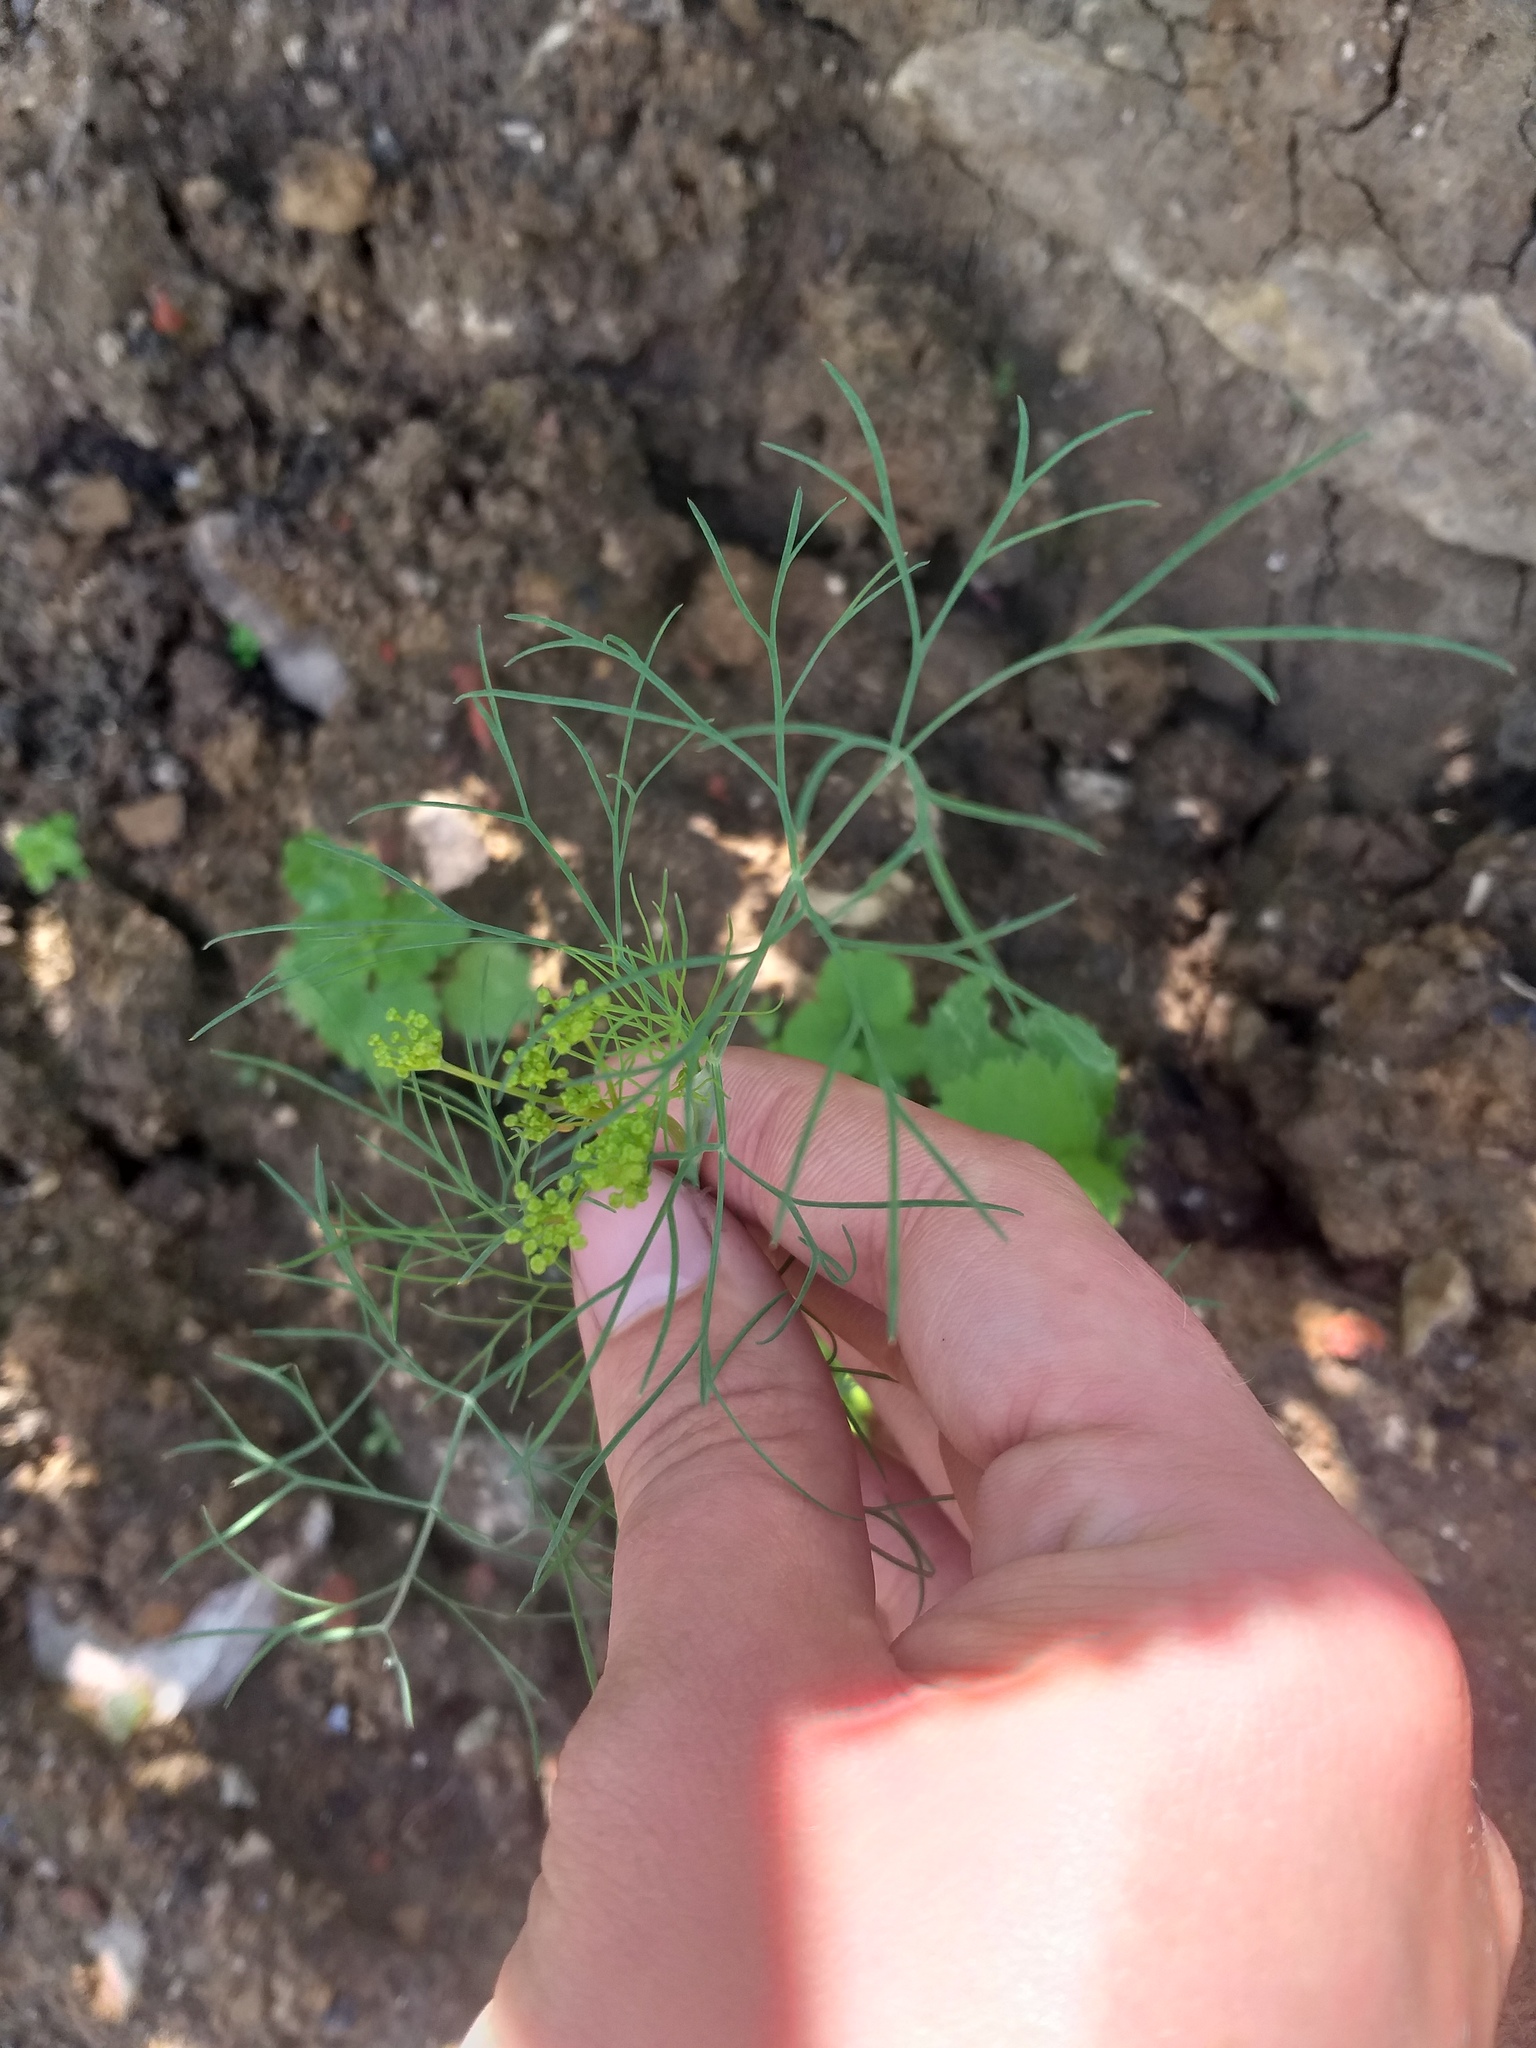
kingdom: Plantae
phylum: Tracheophyta
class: Magnoliopsida
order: Apiales
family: Apiaceae
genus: Anethum
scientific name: Anethum graveolens
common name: Dill
